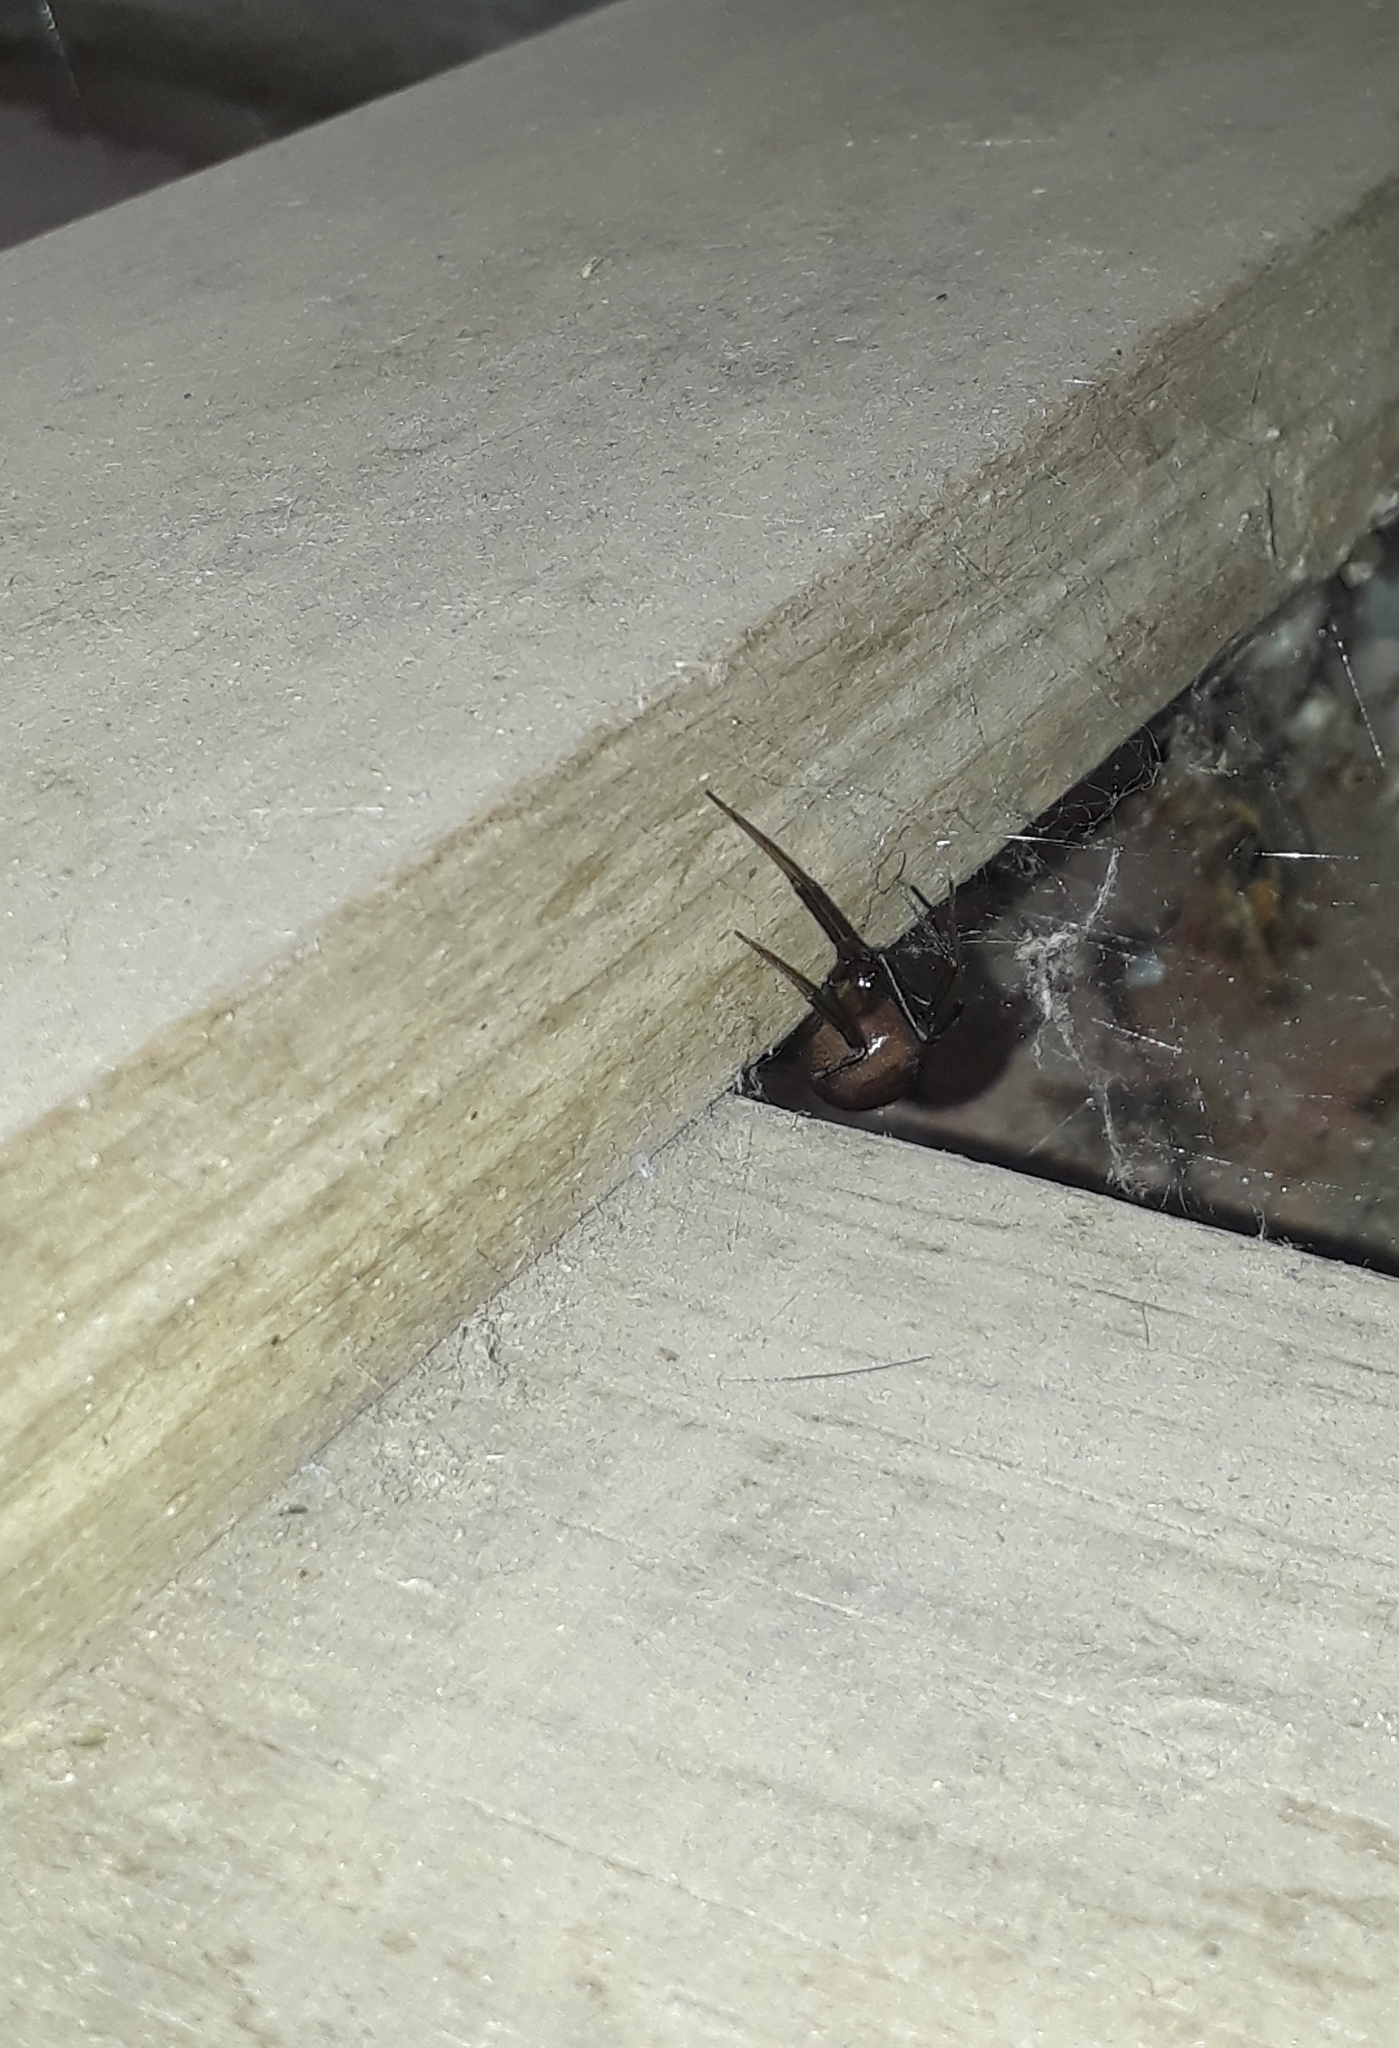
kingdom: Animalia
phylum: Arthropoda
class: Arachnida
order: Araneae
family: Theridiidae
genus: Steatoda
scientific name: Steatoda grossa
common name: False black widow
